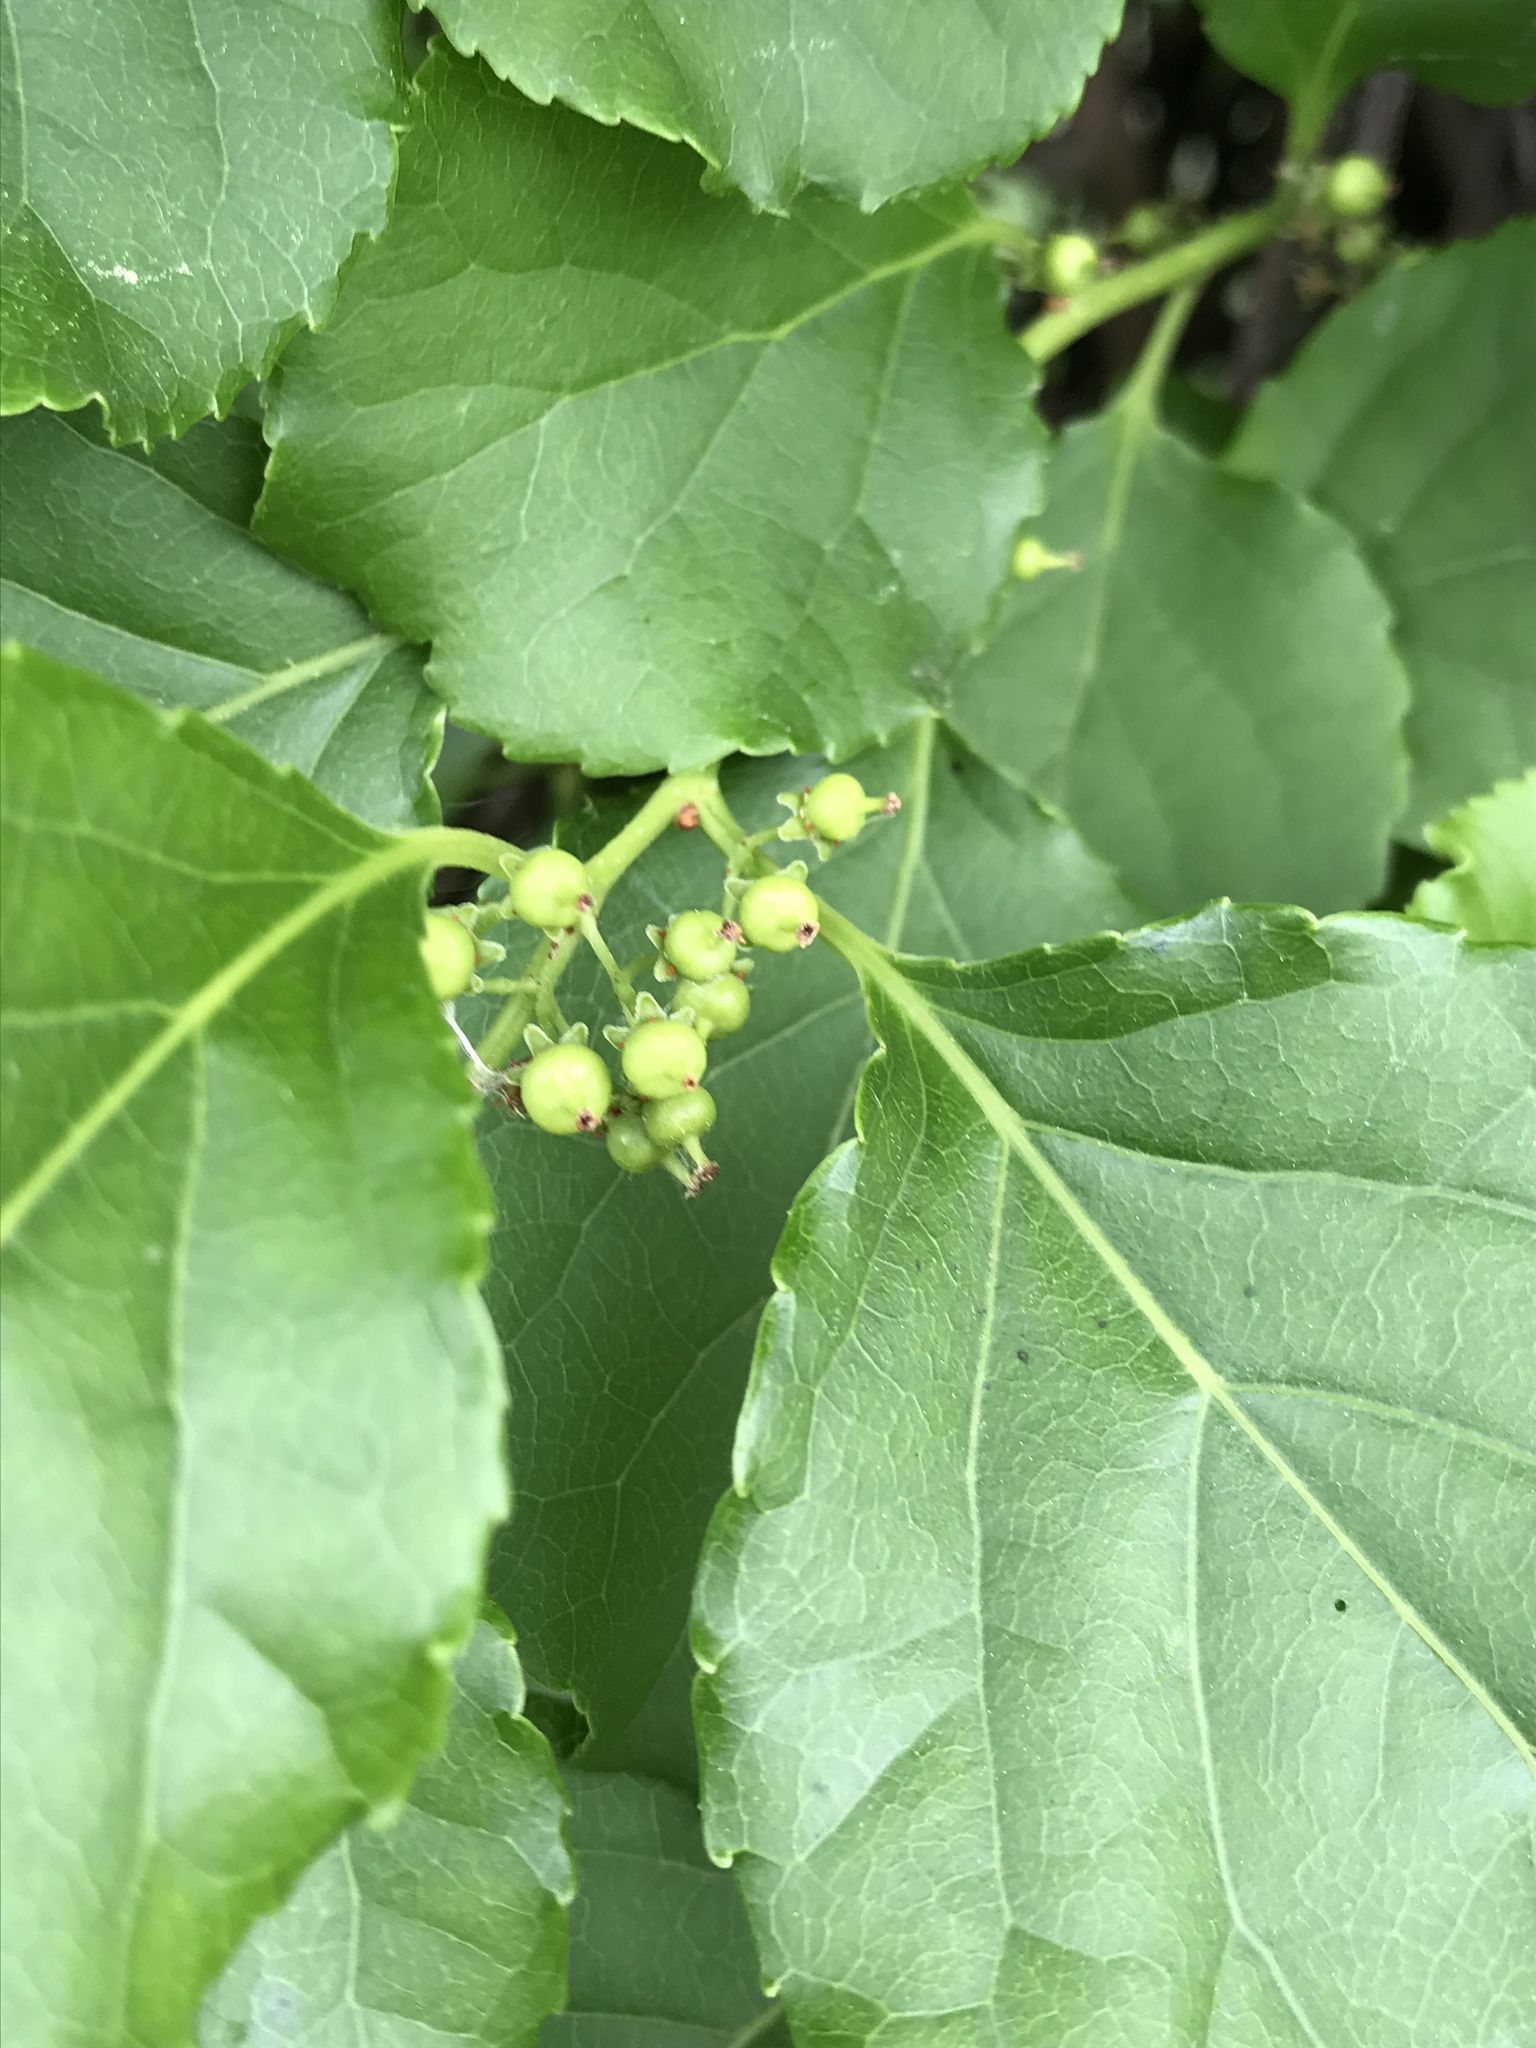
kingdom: Plantae
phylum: Tracheophyta
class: Magnoliopsida
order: Celastrales
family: Celastraceae
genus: Celastrus
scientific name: Celastrus orbiculatus
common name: Oriental bittersweet
